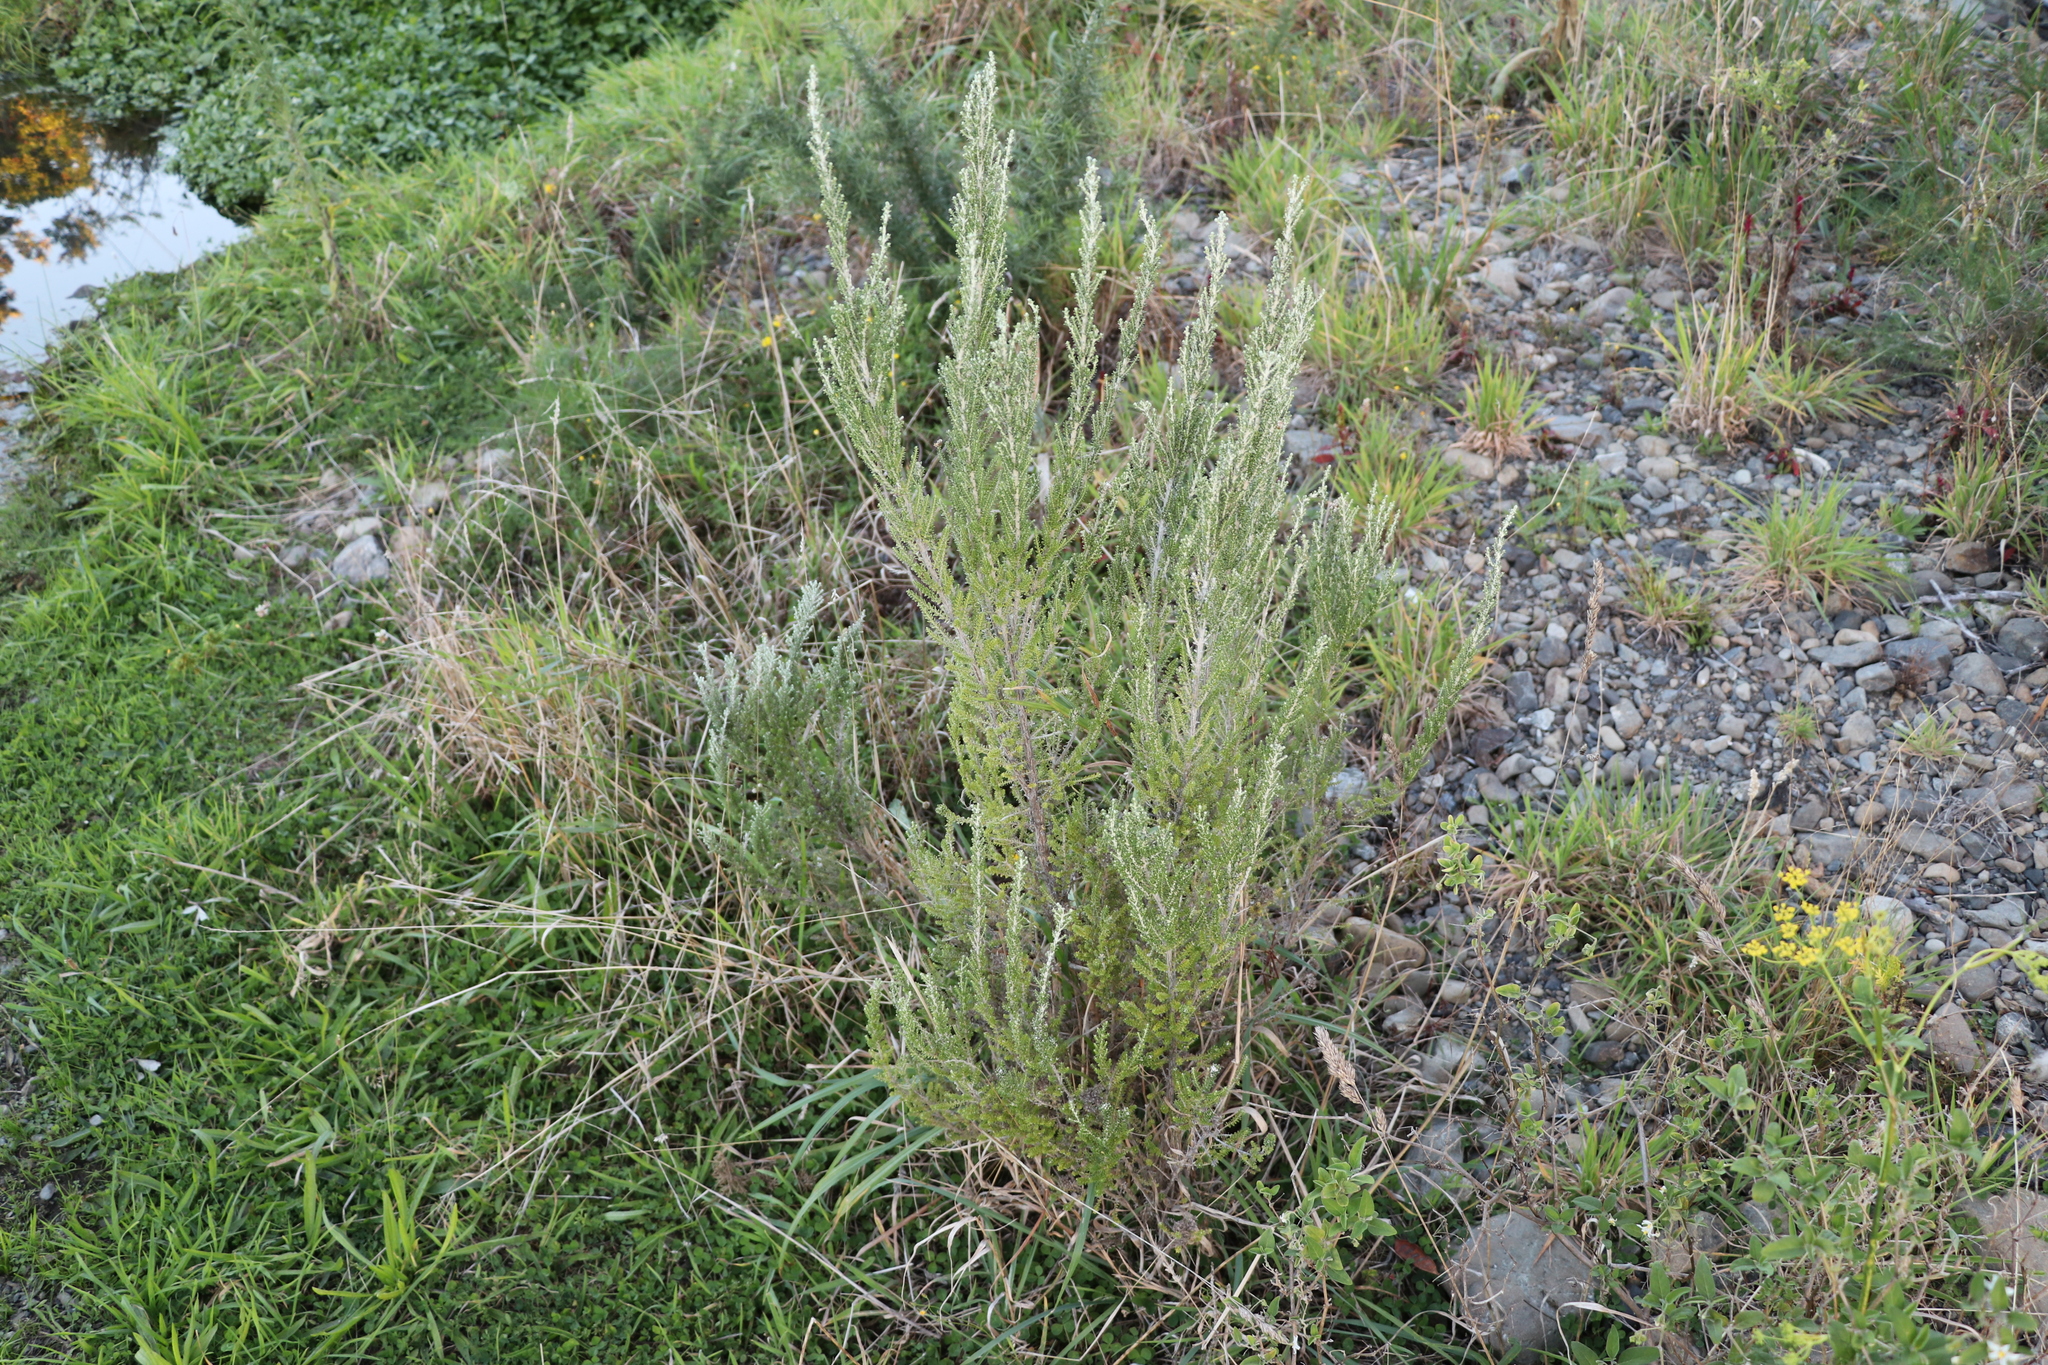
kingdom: Plantae
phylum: Tracheophyta
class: Magnoliopsida
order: Asterales
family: Asteraceae
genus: Ozothamnus
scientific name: Ozothamnus leptophyllus
